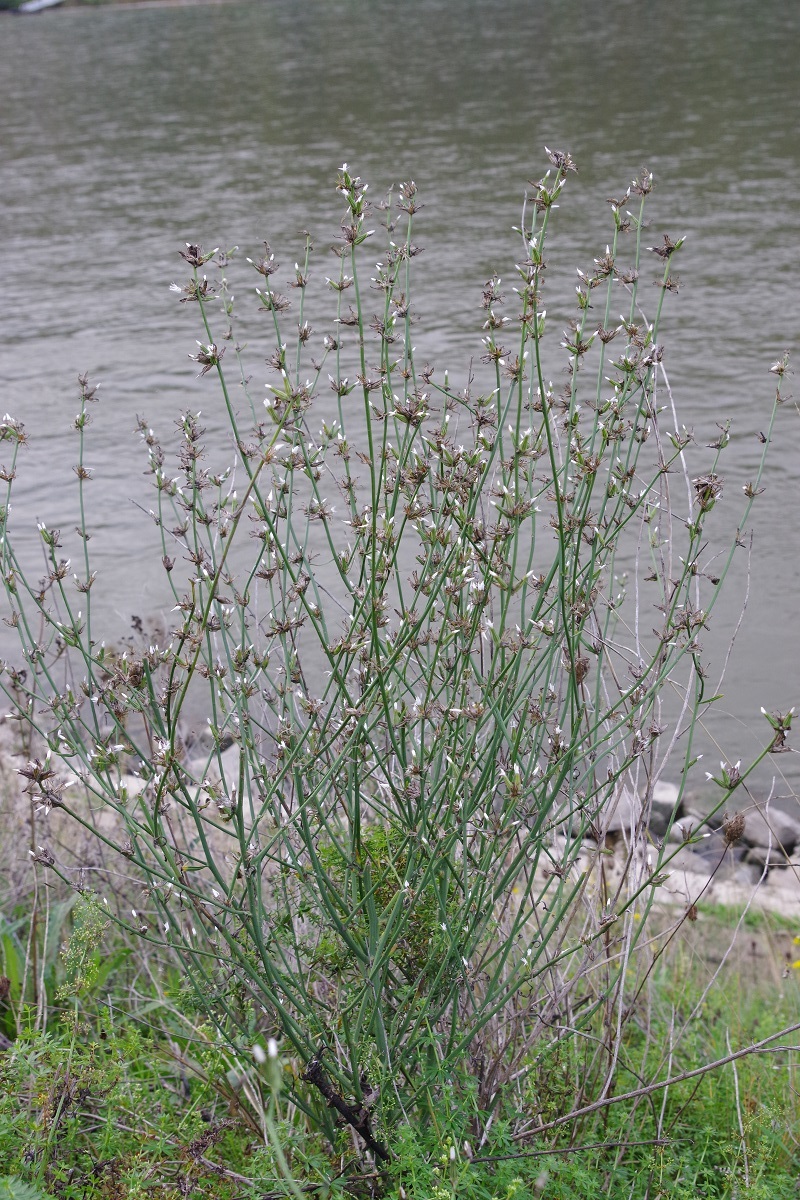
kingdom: Plantae
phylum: Tracheophyta
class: Magnoliopsida
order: Asterales
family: Asteraceae
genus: Chondrilla
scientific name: Chondrilla juncea
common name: Skeleton weed
